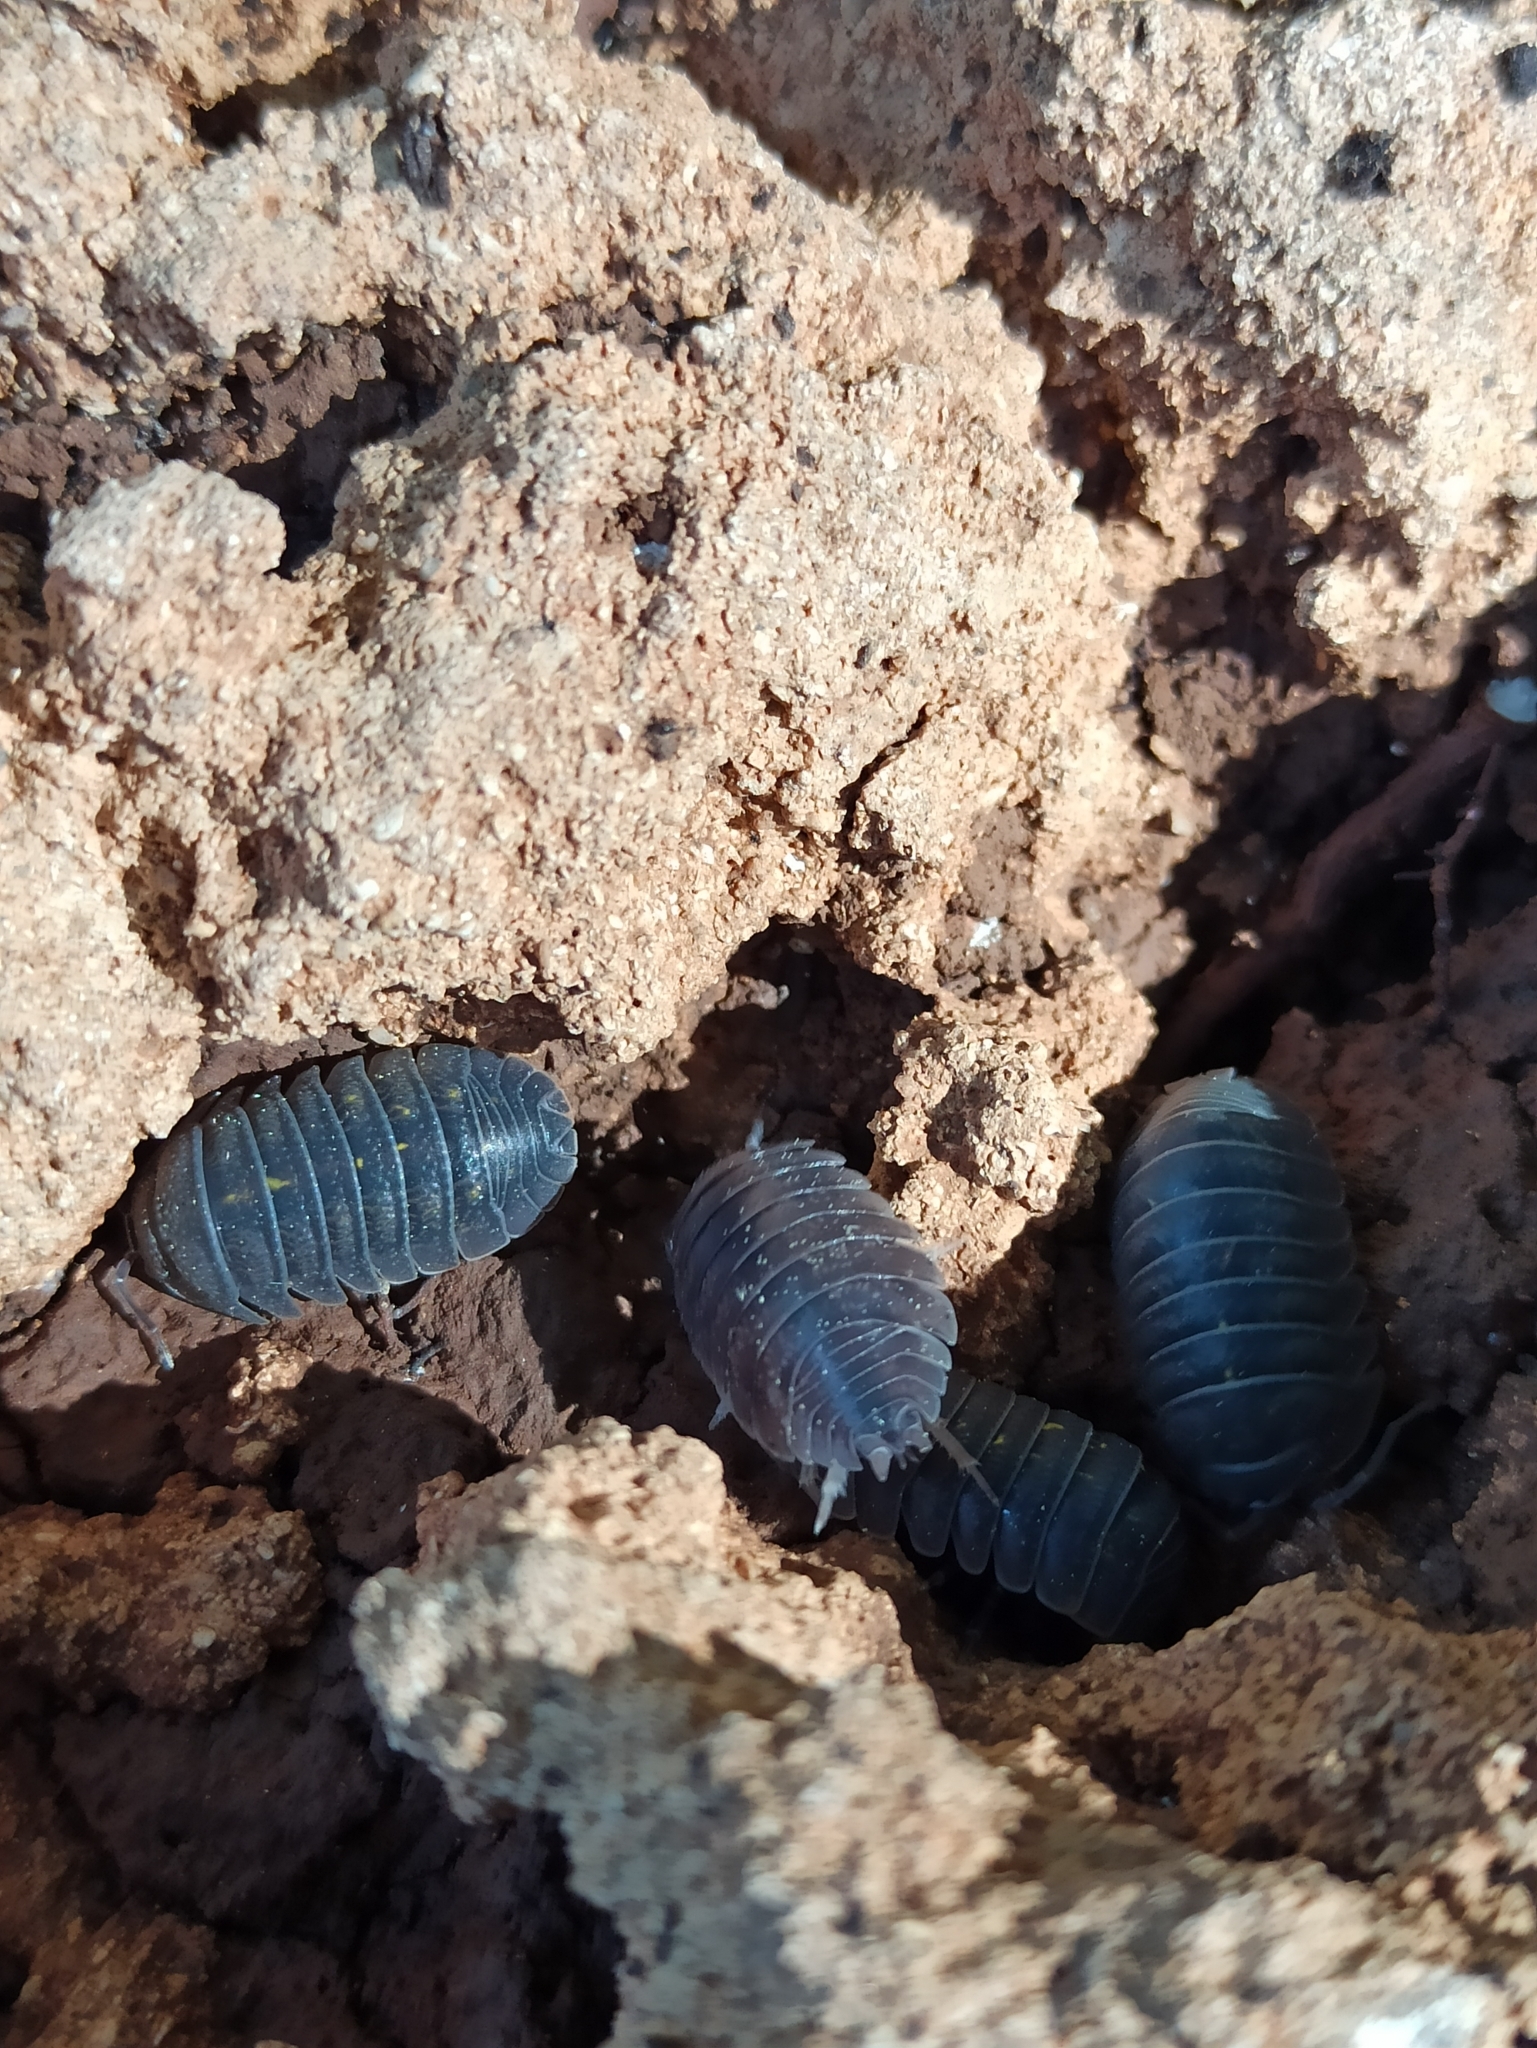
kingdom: Animalia
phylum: Arthropoda
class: Malacostraca
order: Isopoda
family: Armadillidiidae
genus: Armadillidium
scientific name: Armadillidium granulatum
